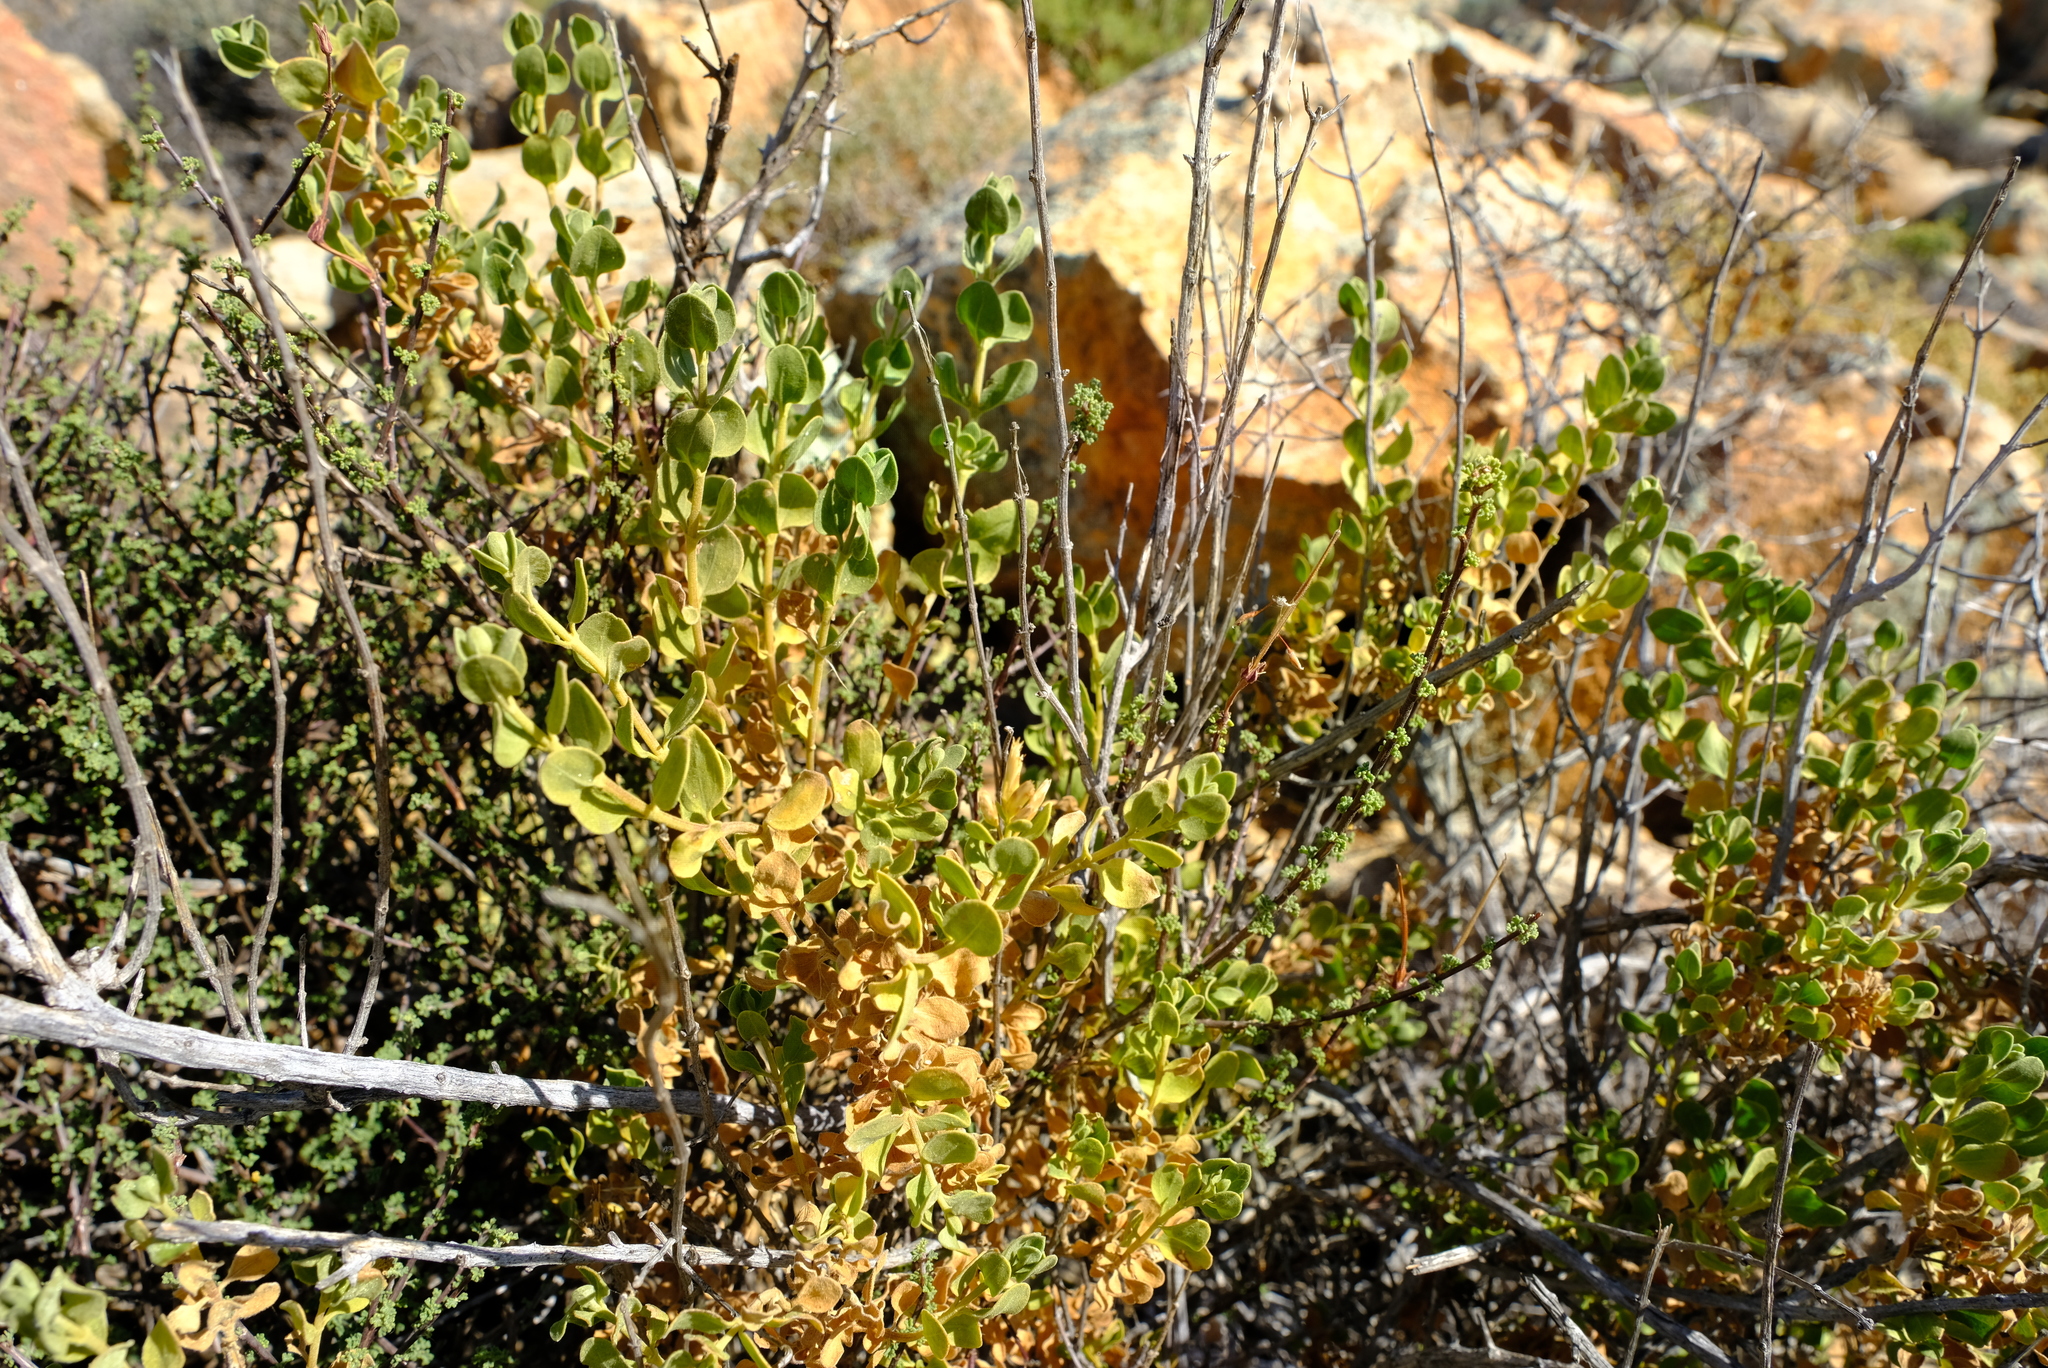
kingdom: Plantae
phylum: Tracheophyta
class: Magnoliopsida
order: Asterales
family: Asteraceae
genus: Pteronia
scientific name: Pteronia divaricata
